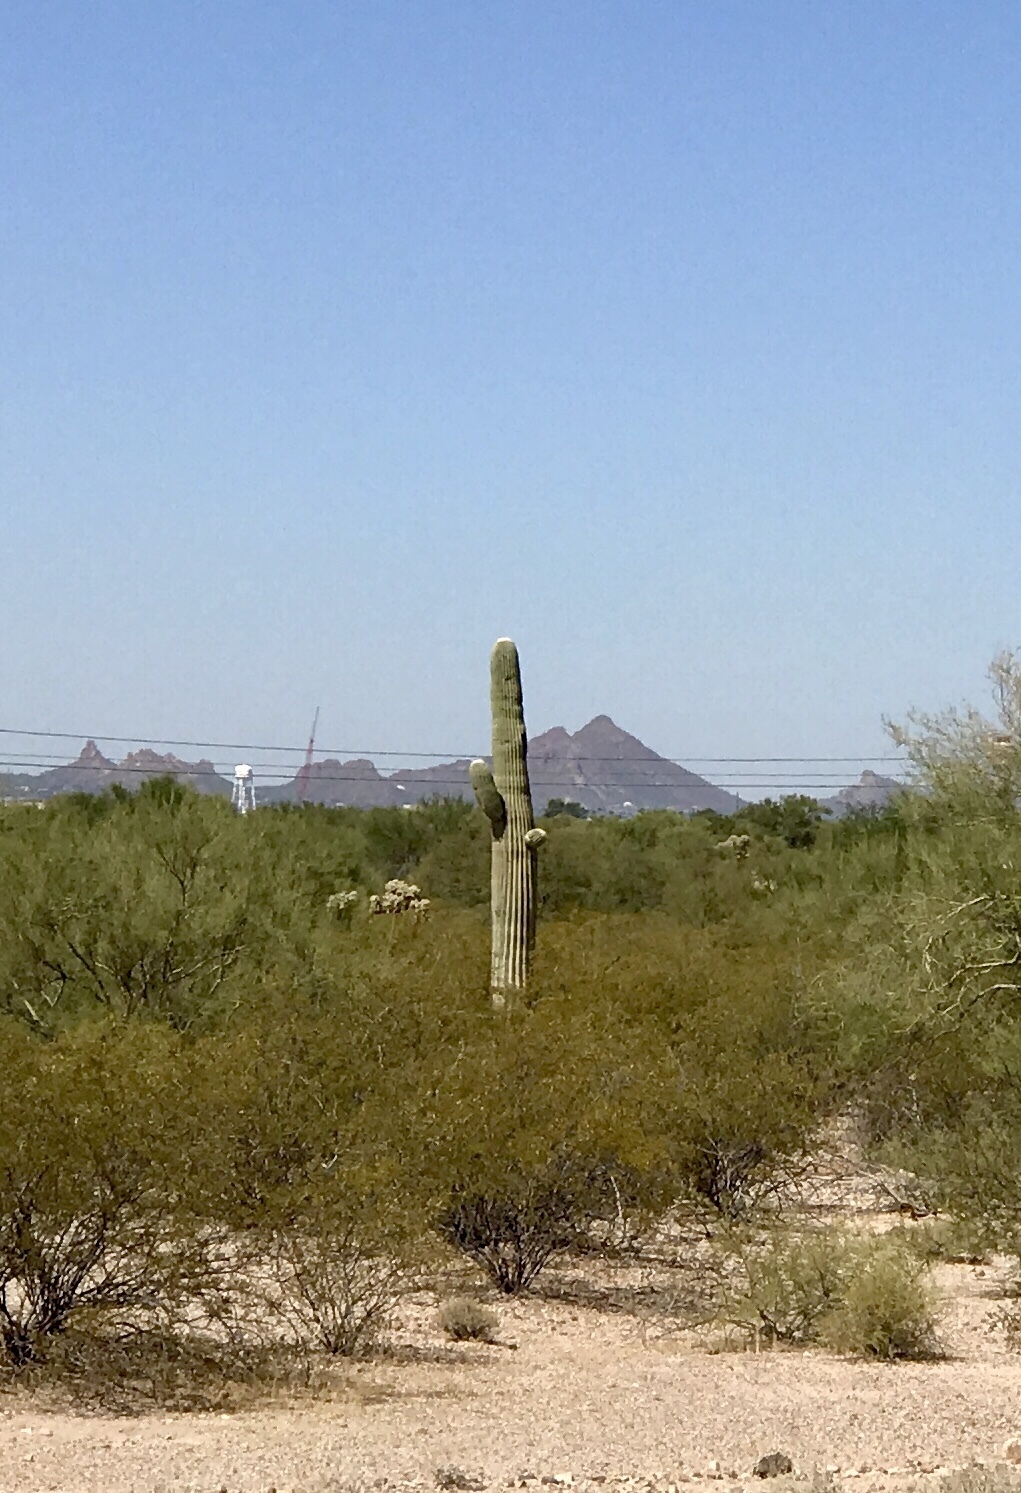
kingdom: Plantae
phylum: Tracheophyta
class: Magnoliopsida
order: Caryophyllales
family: Cactaceae
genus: Carnegiea
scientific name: Carnegiea gigantea
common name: Saguaro
